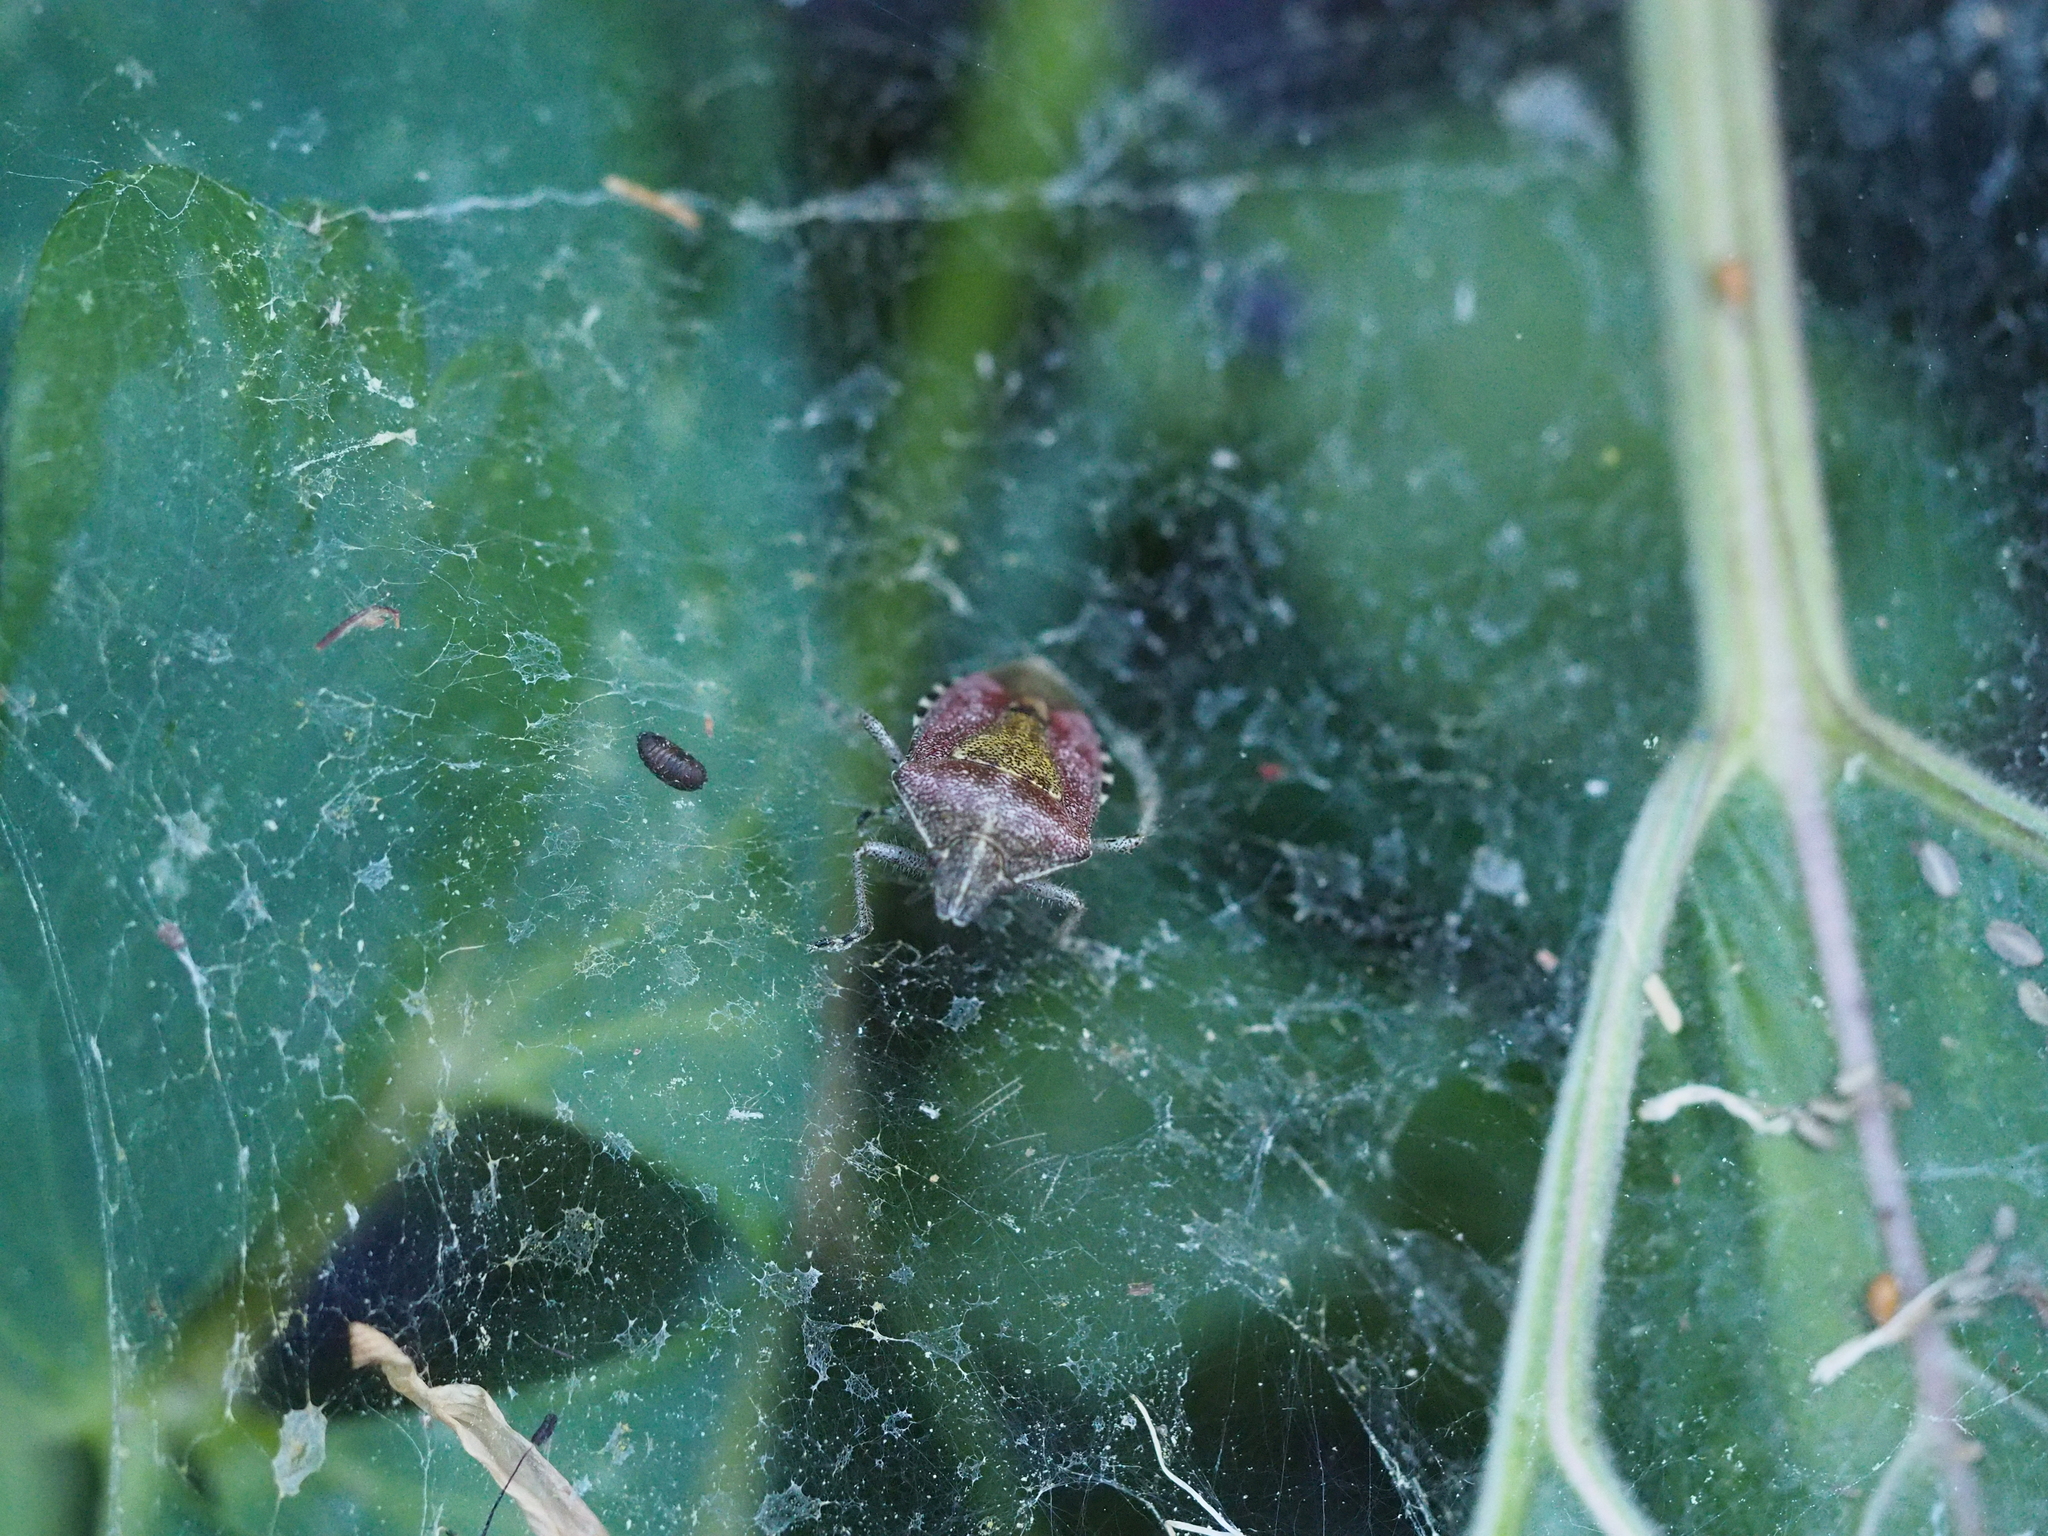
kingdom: Animalia
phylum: Arthropoda
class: Insecta
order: Hemiptera
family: Pentatomidae
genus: Dolycoris
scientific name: Dolycoris baccarum
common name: Sloe bug
